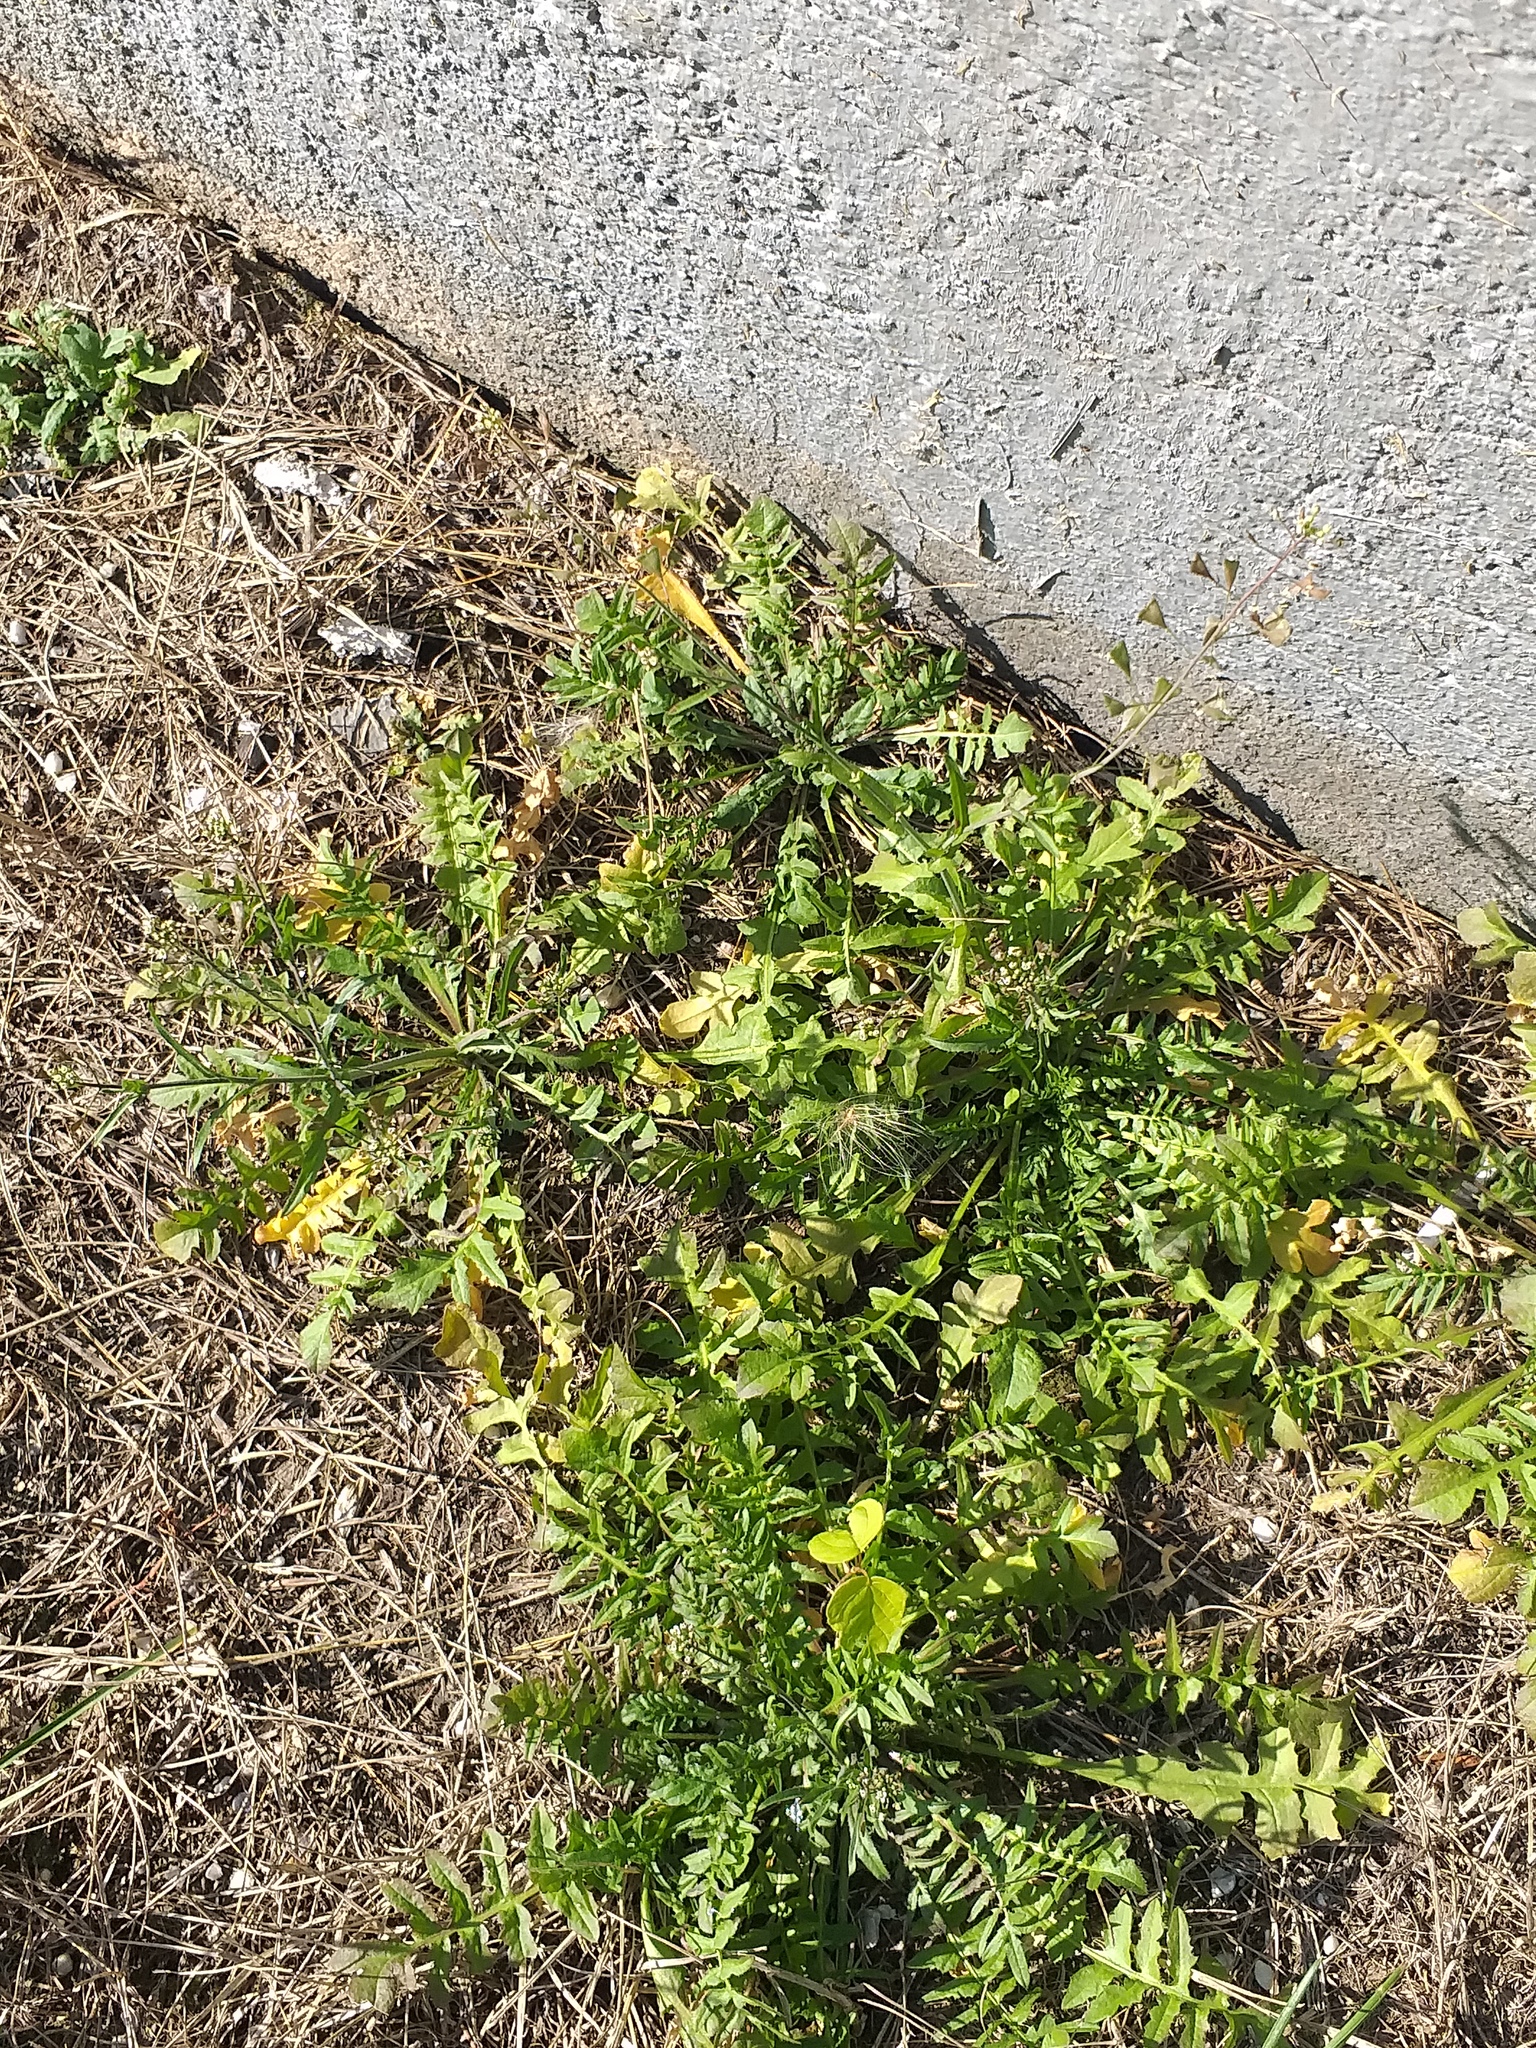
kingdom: Plantae
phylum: Tracheophyta
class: Magnoliopsida
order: Brassicales
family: Brassicaceae
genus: Capsella
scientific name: Capsella bursa-pastoris
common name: Shepherd's purse
